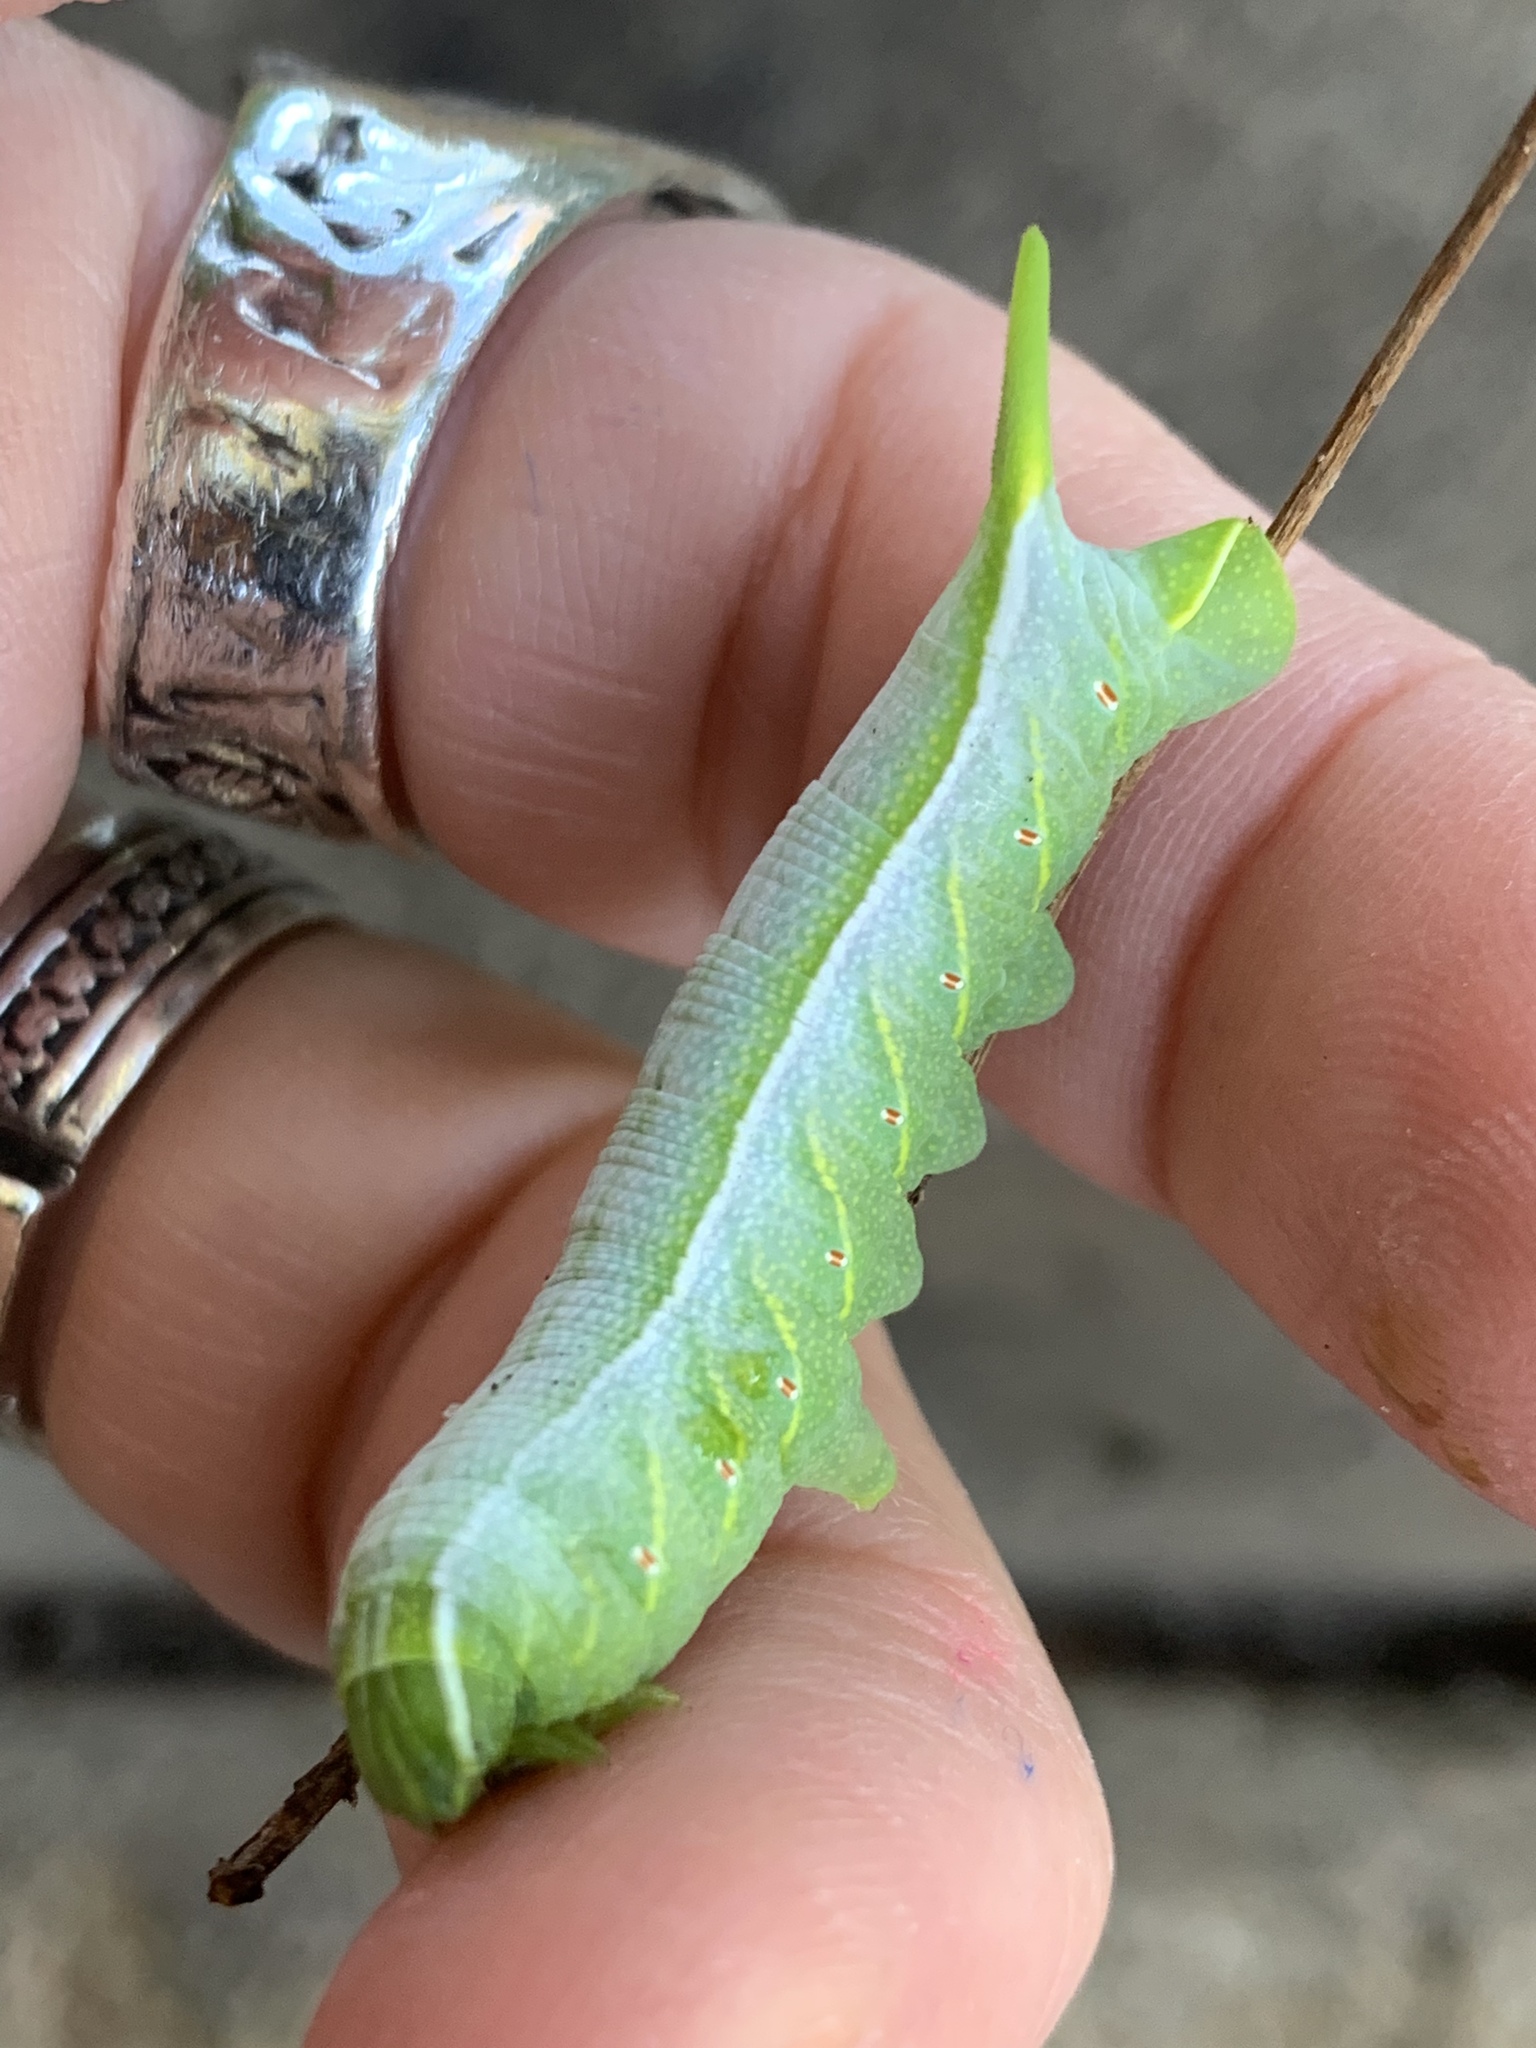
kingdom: Animalia
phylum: Arthropoda
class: Insecta
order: Lepidoptera
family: Sphingidae
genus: Enyo
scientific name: Enyo lugubris
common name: Mournful sphinx
